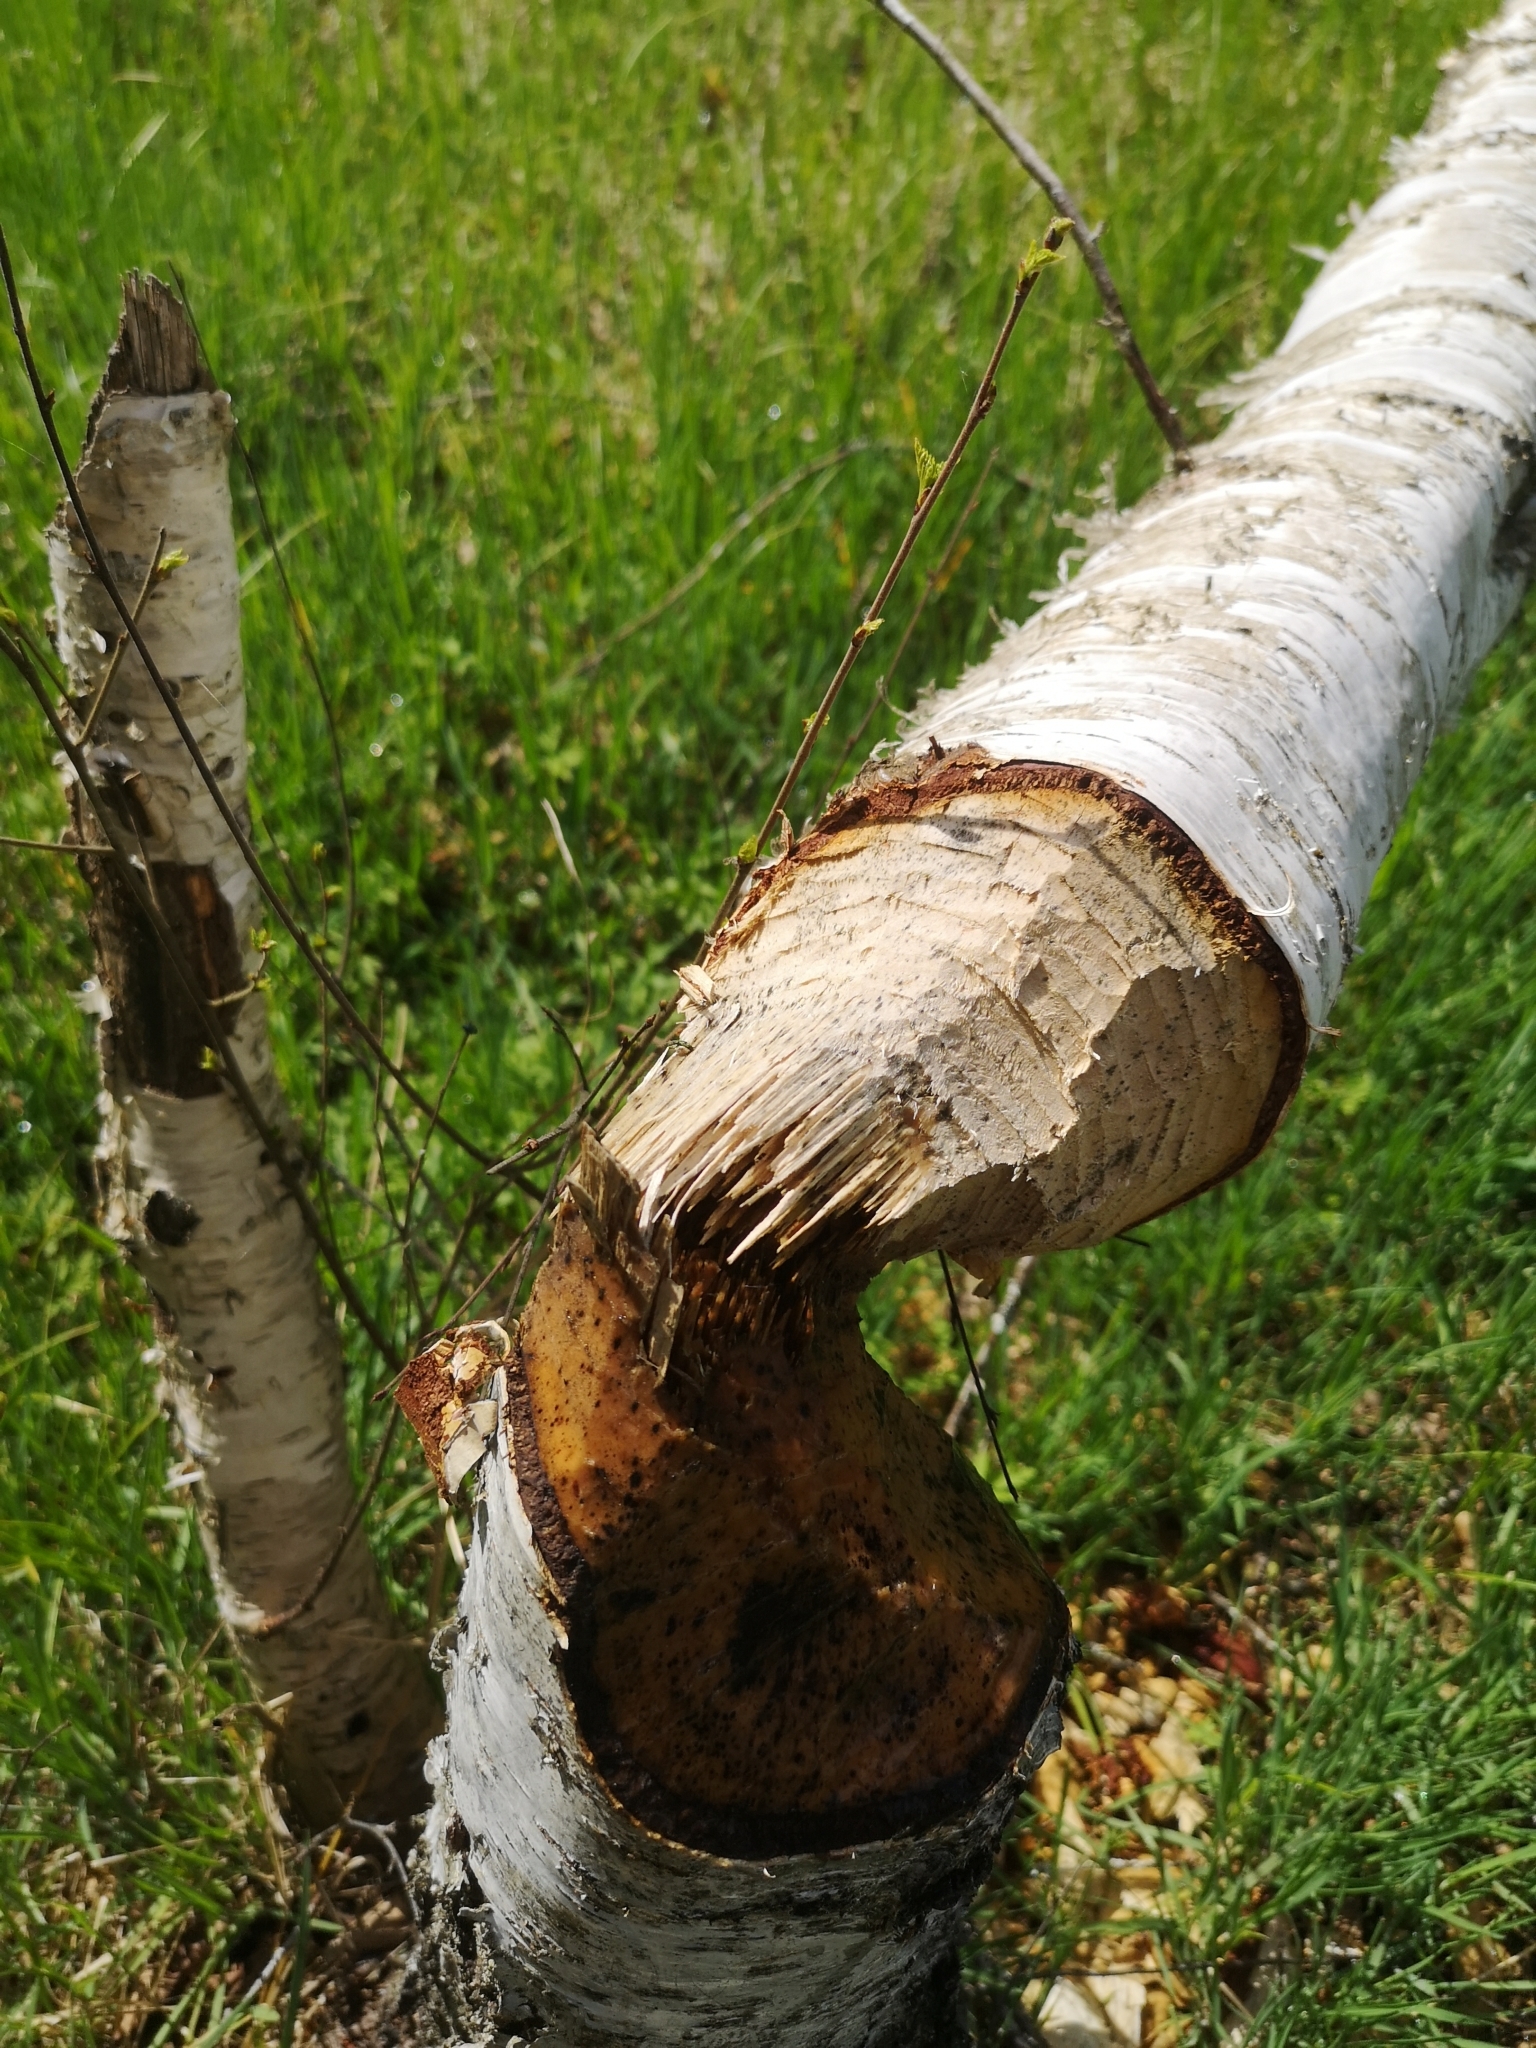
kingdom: Animalia
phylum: Chordata
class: Mammalia
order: Rodentia
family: Castoridae
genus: Castor
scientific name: Castor fiber
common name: Eurasian beaver
